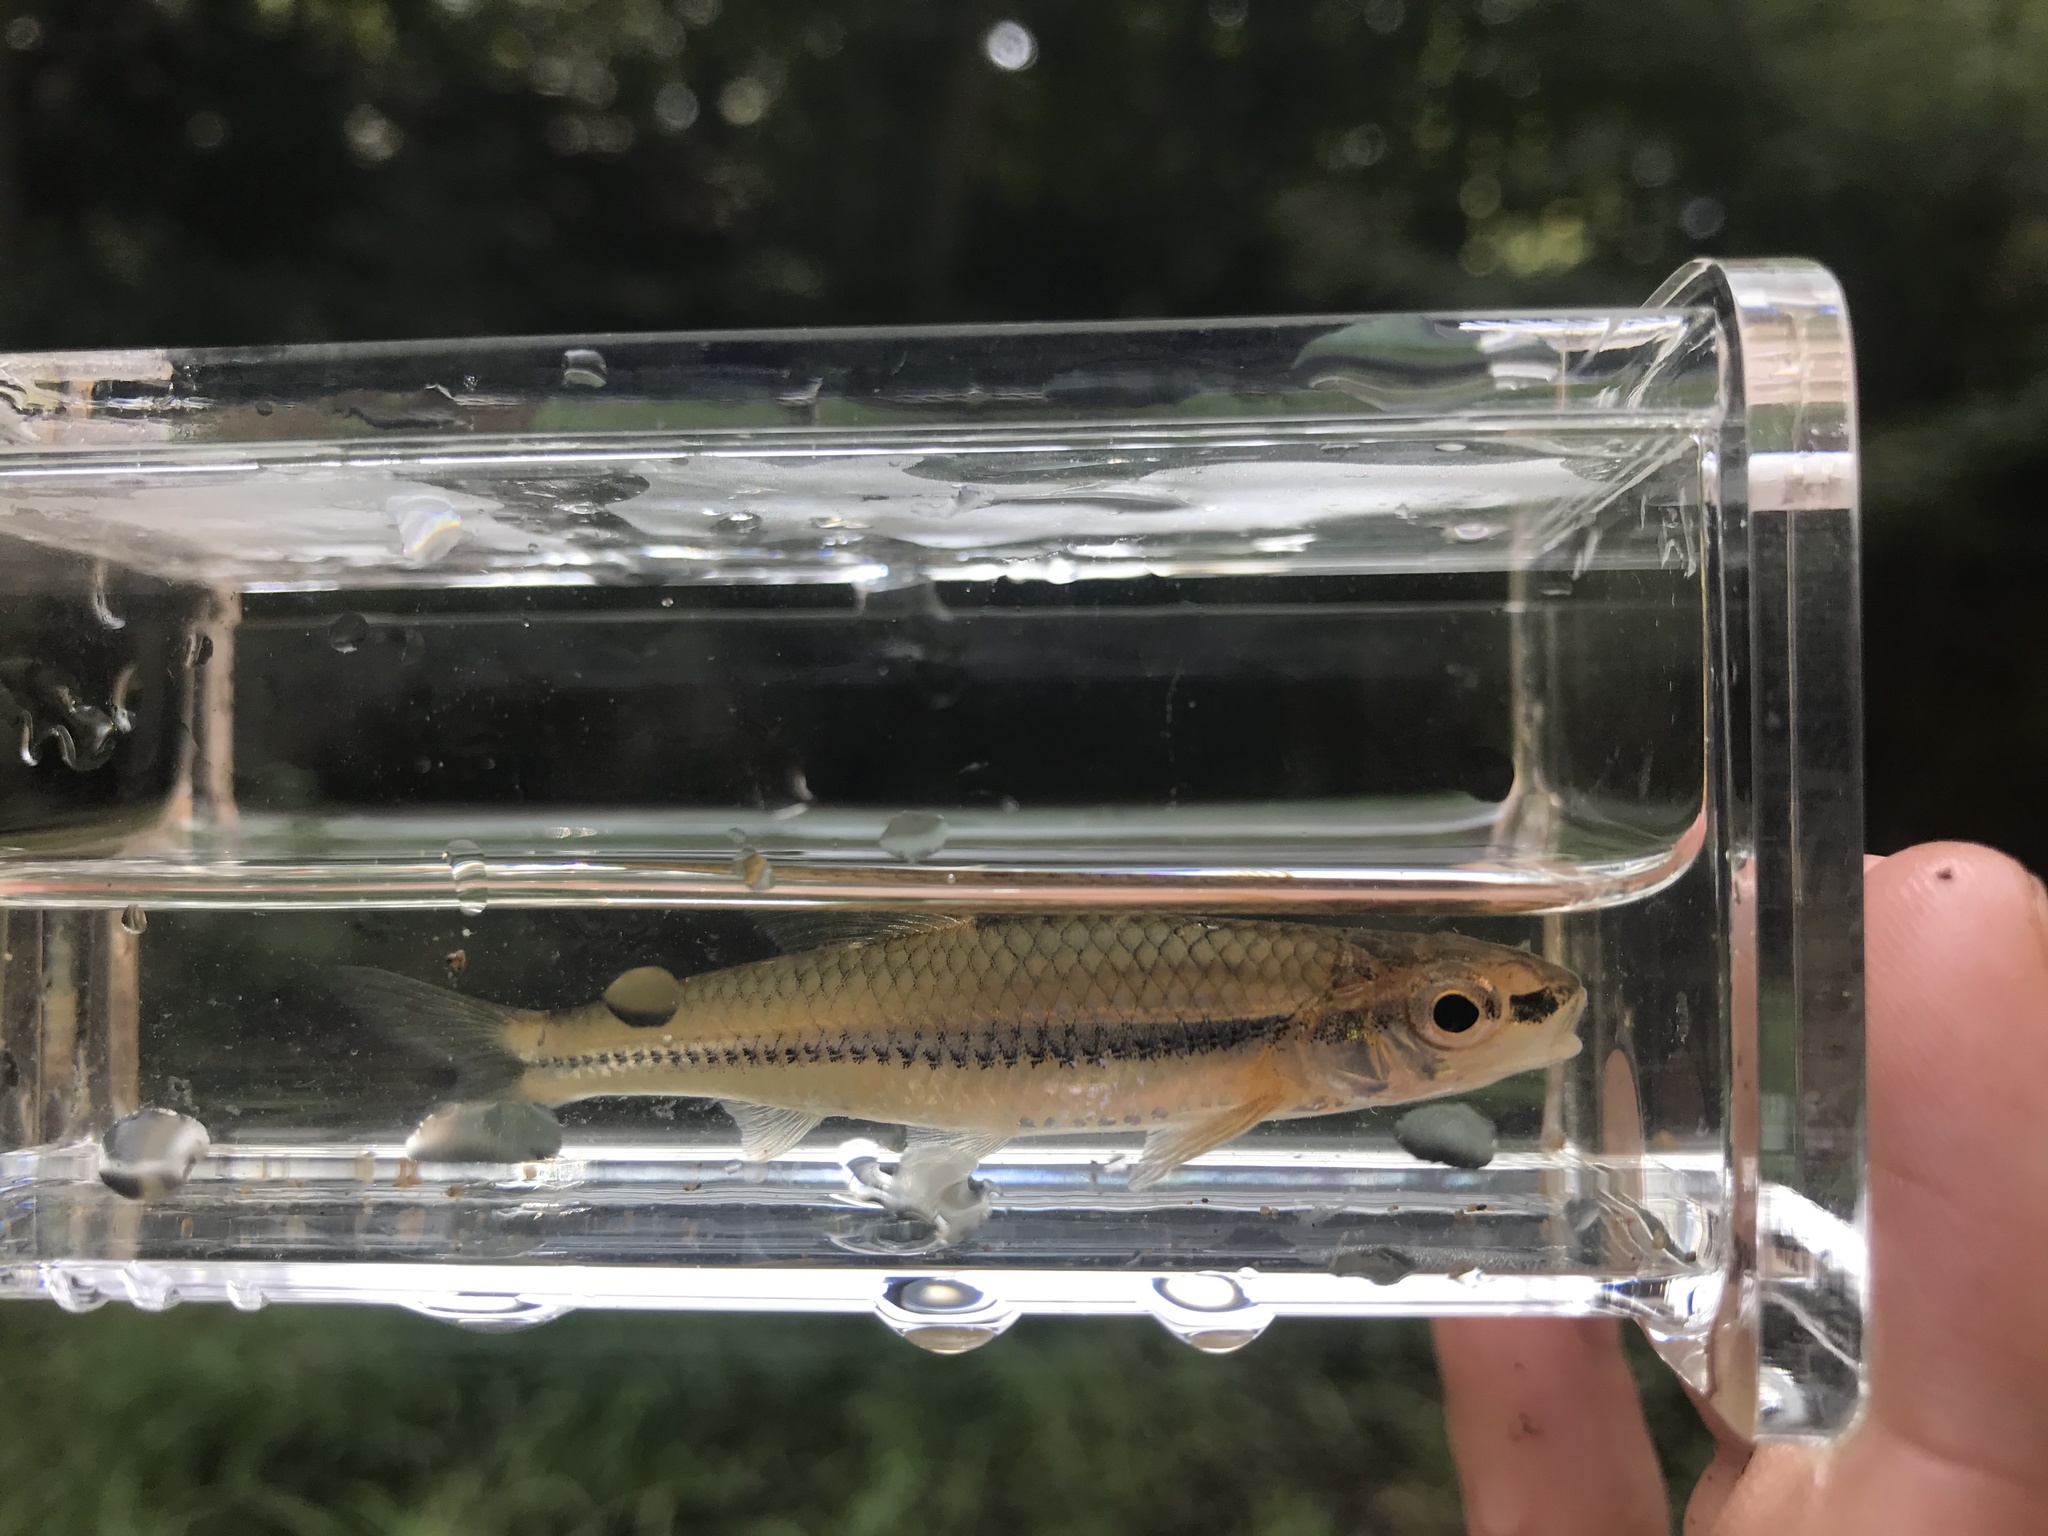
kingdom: Animalia
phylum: Chordata
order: Cypriniformes
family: Cyprinidae
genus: Notropis
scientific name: Notropis
